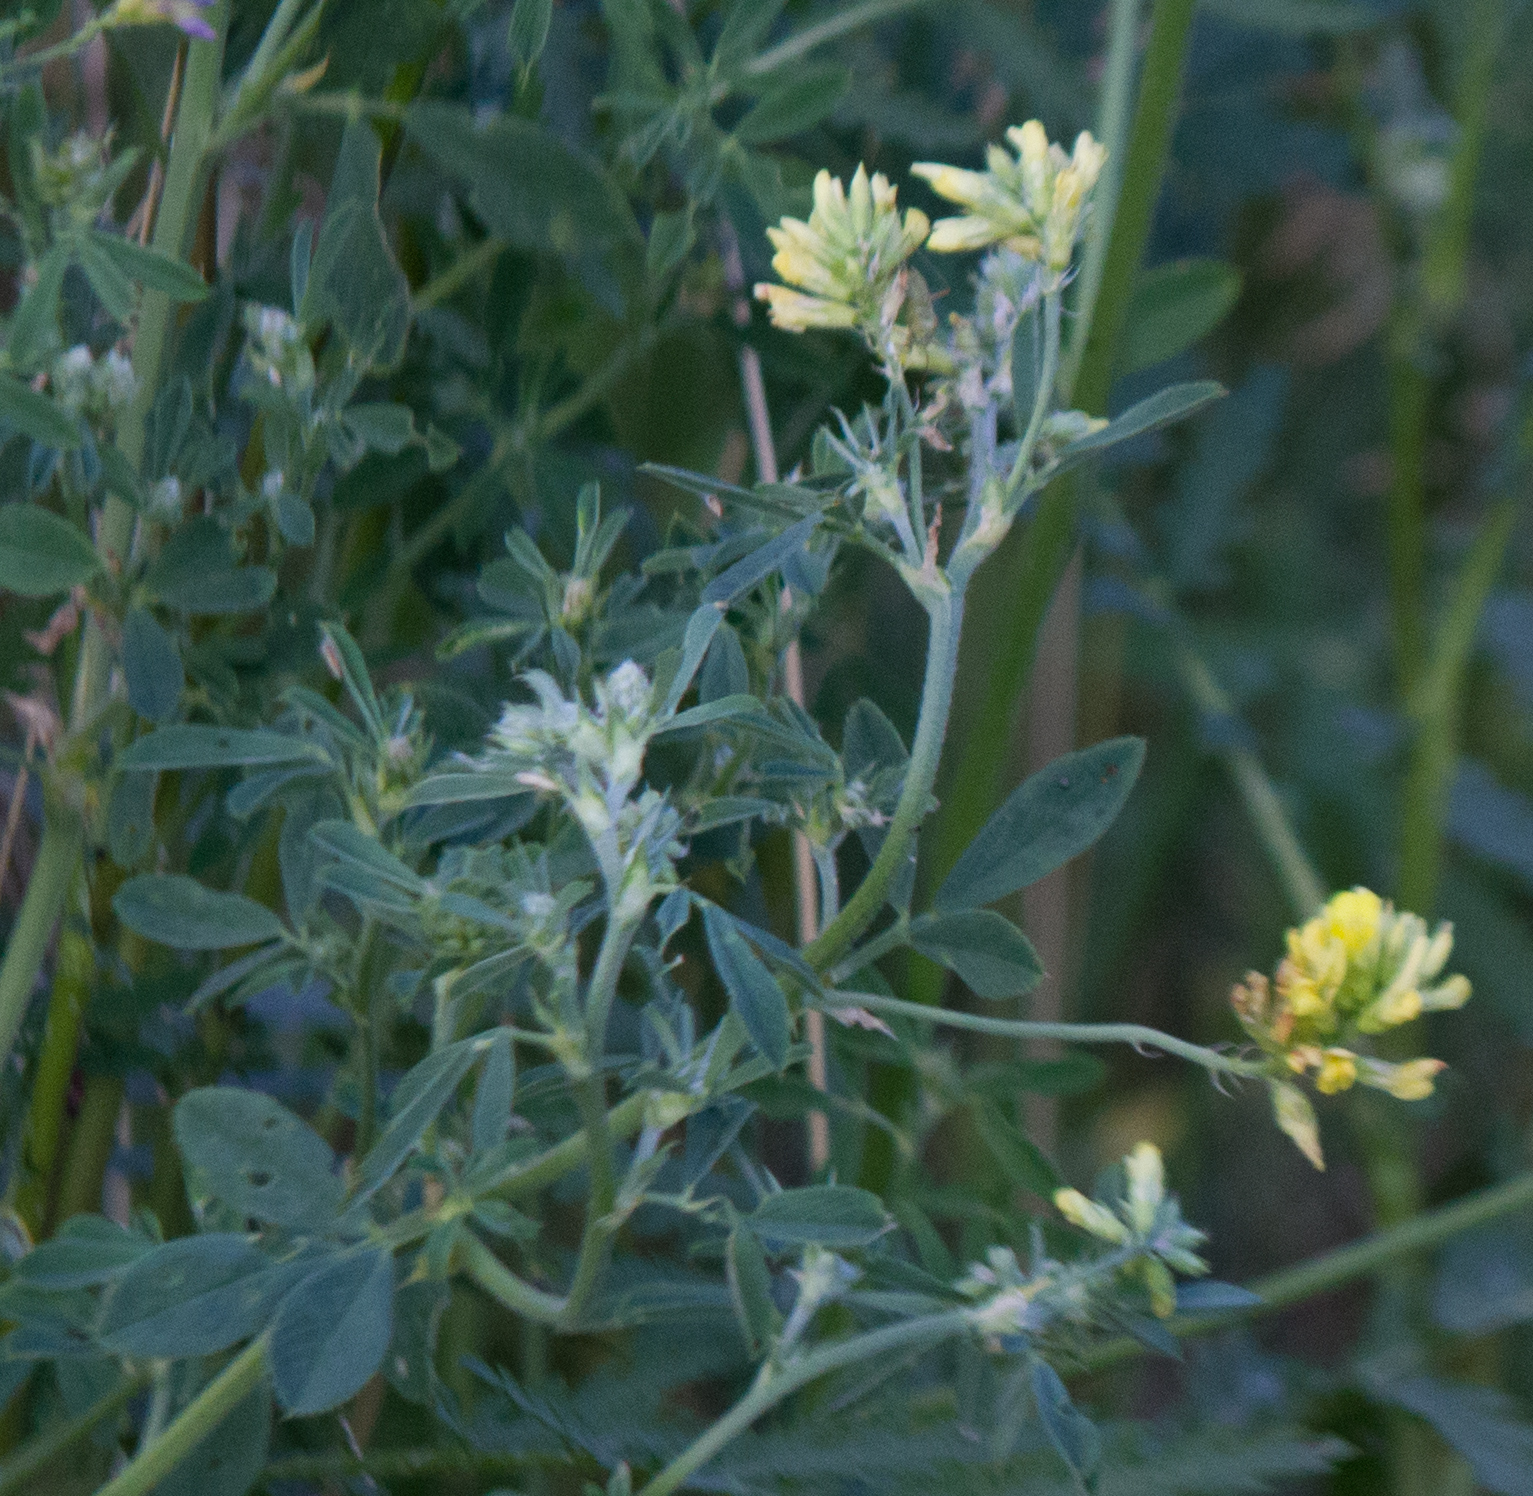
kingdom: Plantae
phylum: Tracheophyta
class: Magnoliopsida
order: Fabales
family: Fabaceae
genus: Medicago
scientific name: Medicago falcata
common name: Sickle medick
